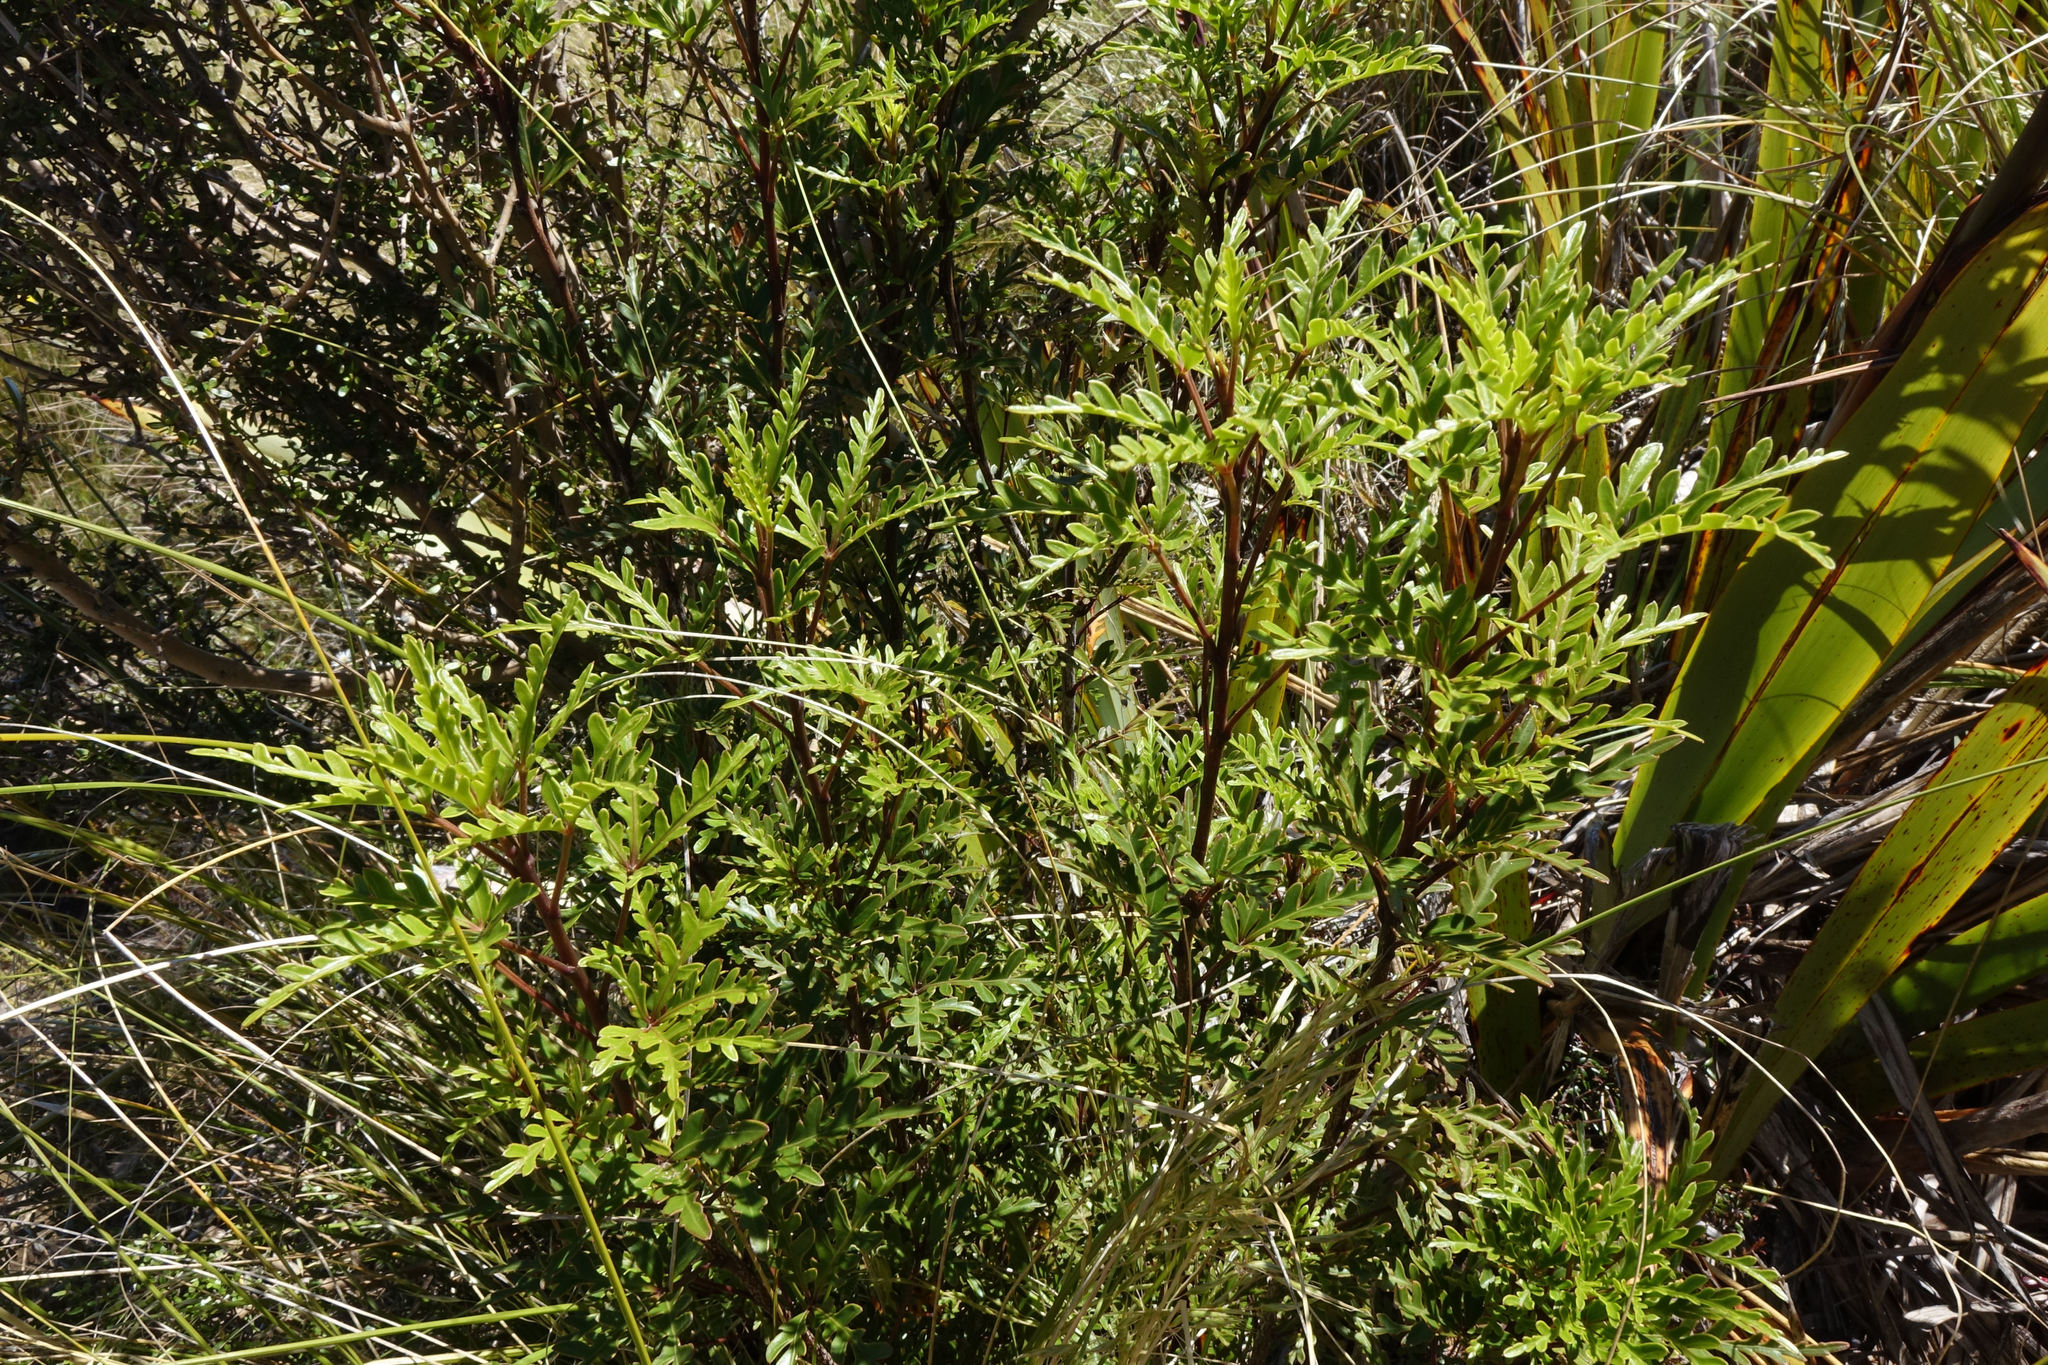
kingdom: Plantae
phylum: Tracheophyta
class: Magnoliopsida
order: Apiales
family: Araliaceae
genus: Raukaua
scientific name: Raukaua simplex
